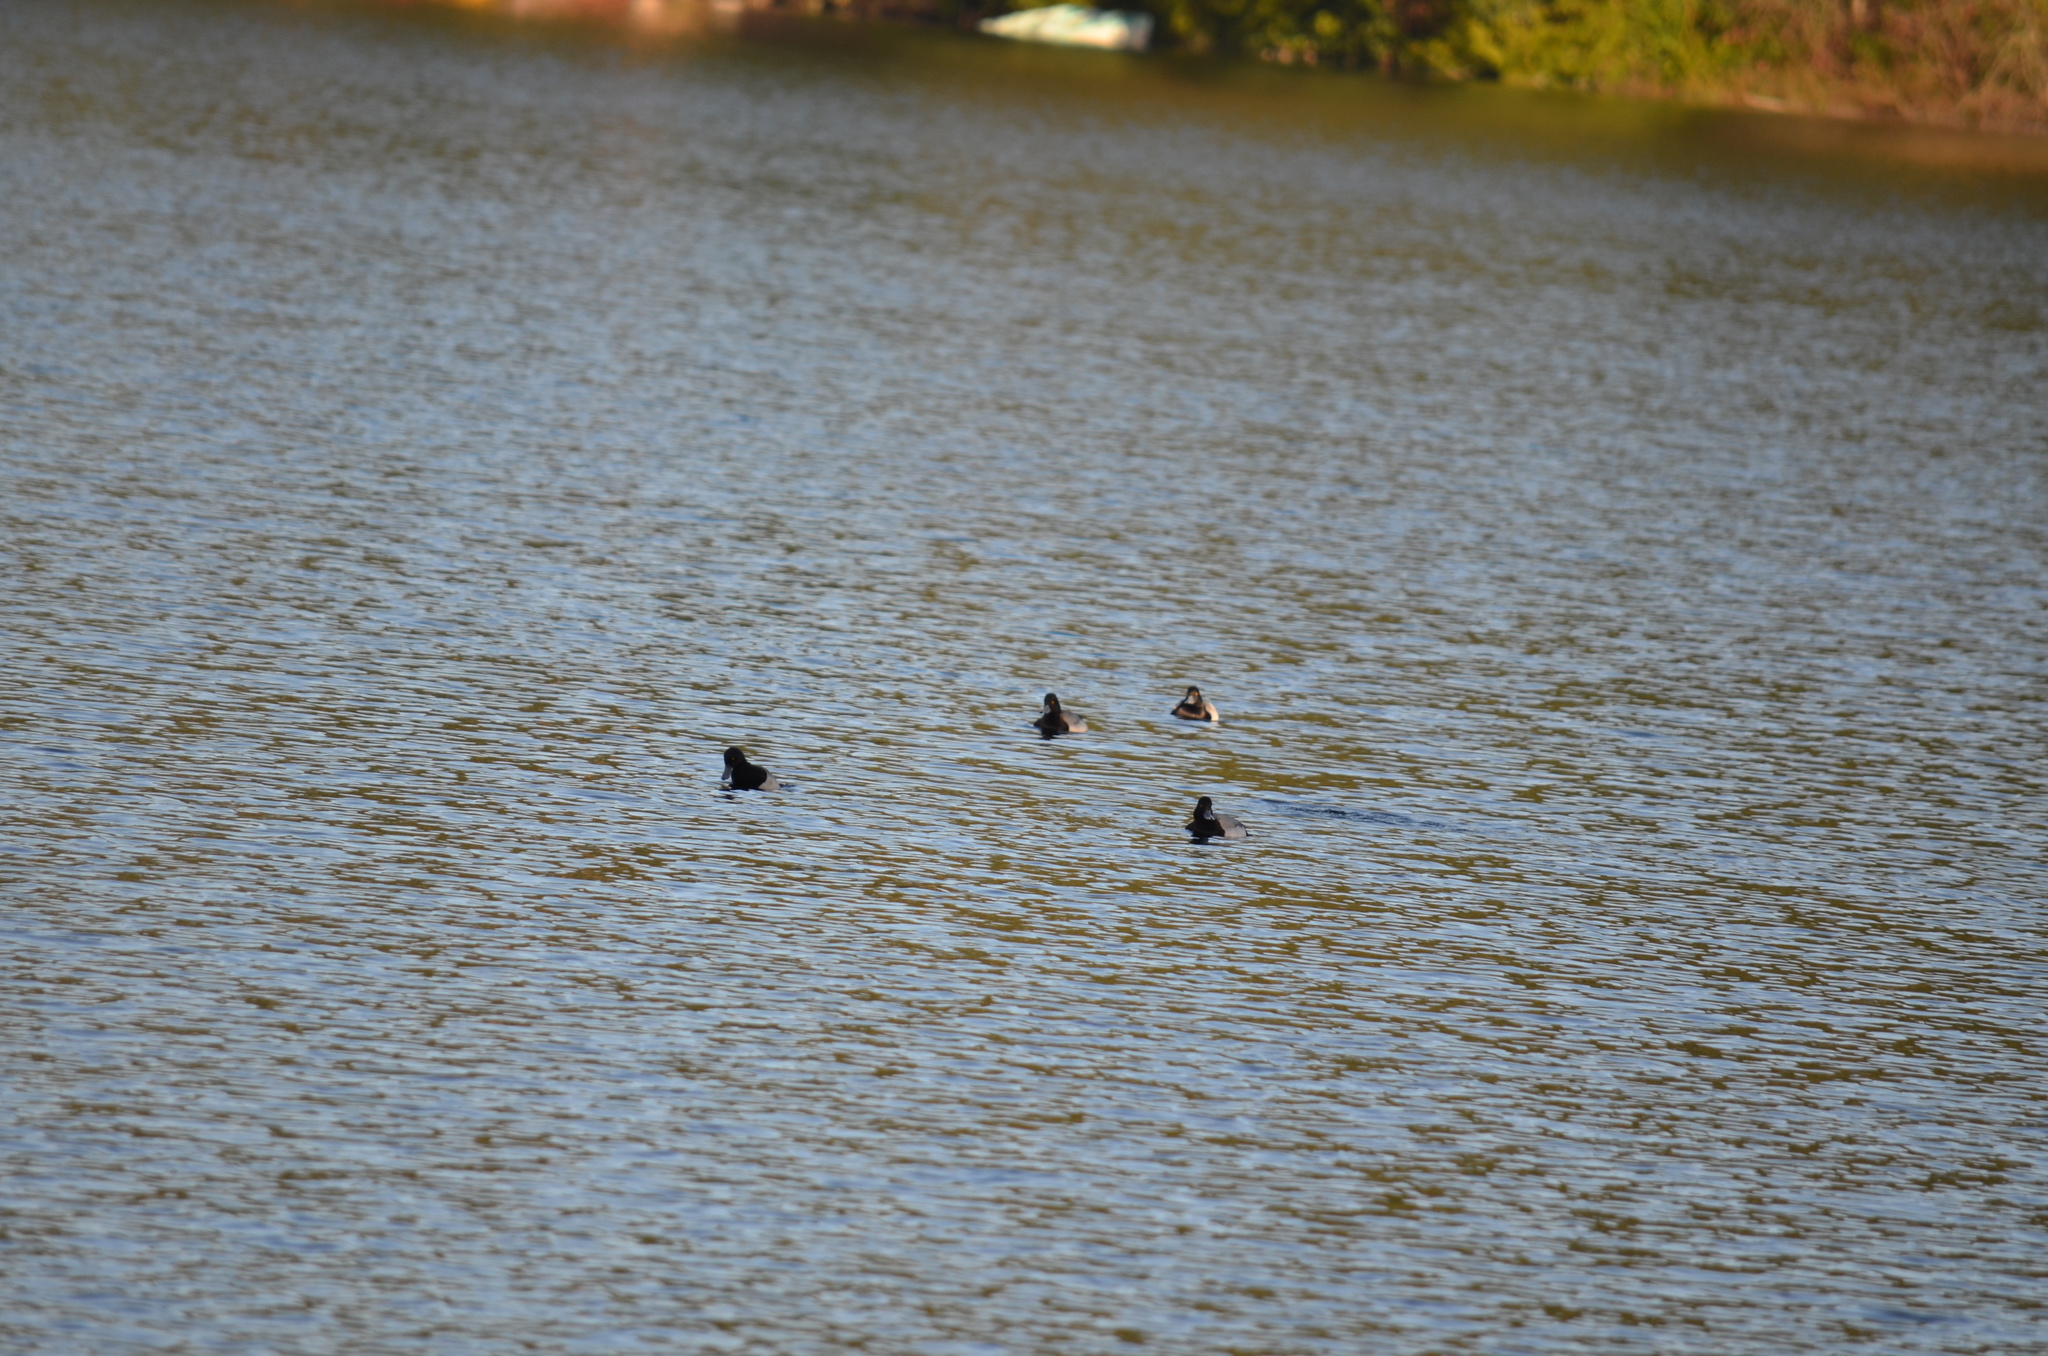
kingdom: Animalia
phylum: Chordata
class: Aves
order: Anseriformes
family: Anatidae
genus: Aythya
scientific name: Aythya affinis
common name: Lesser scaup
